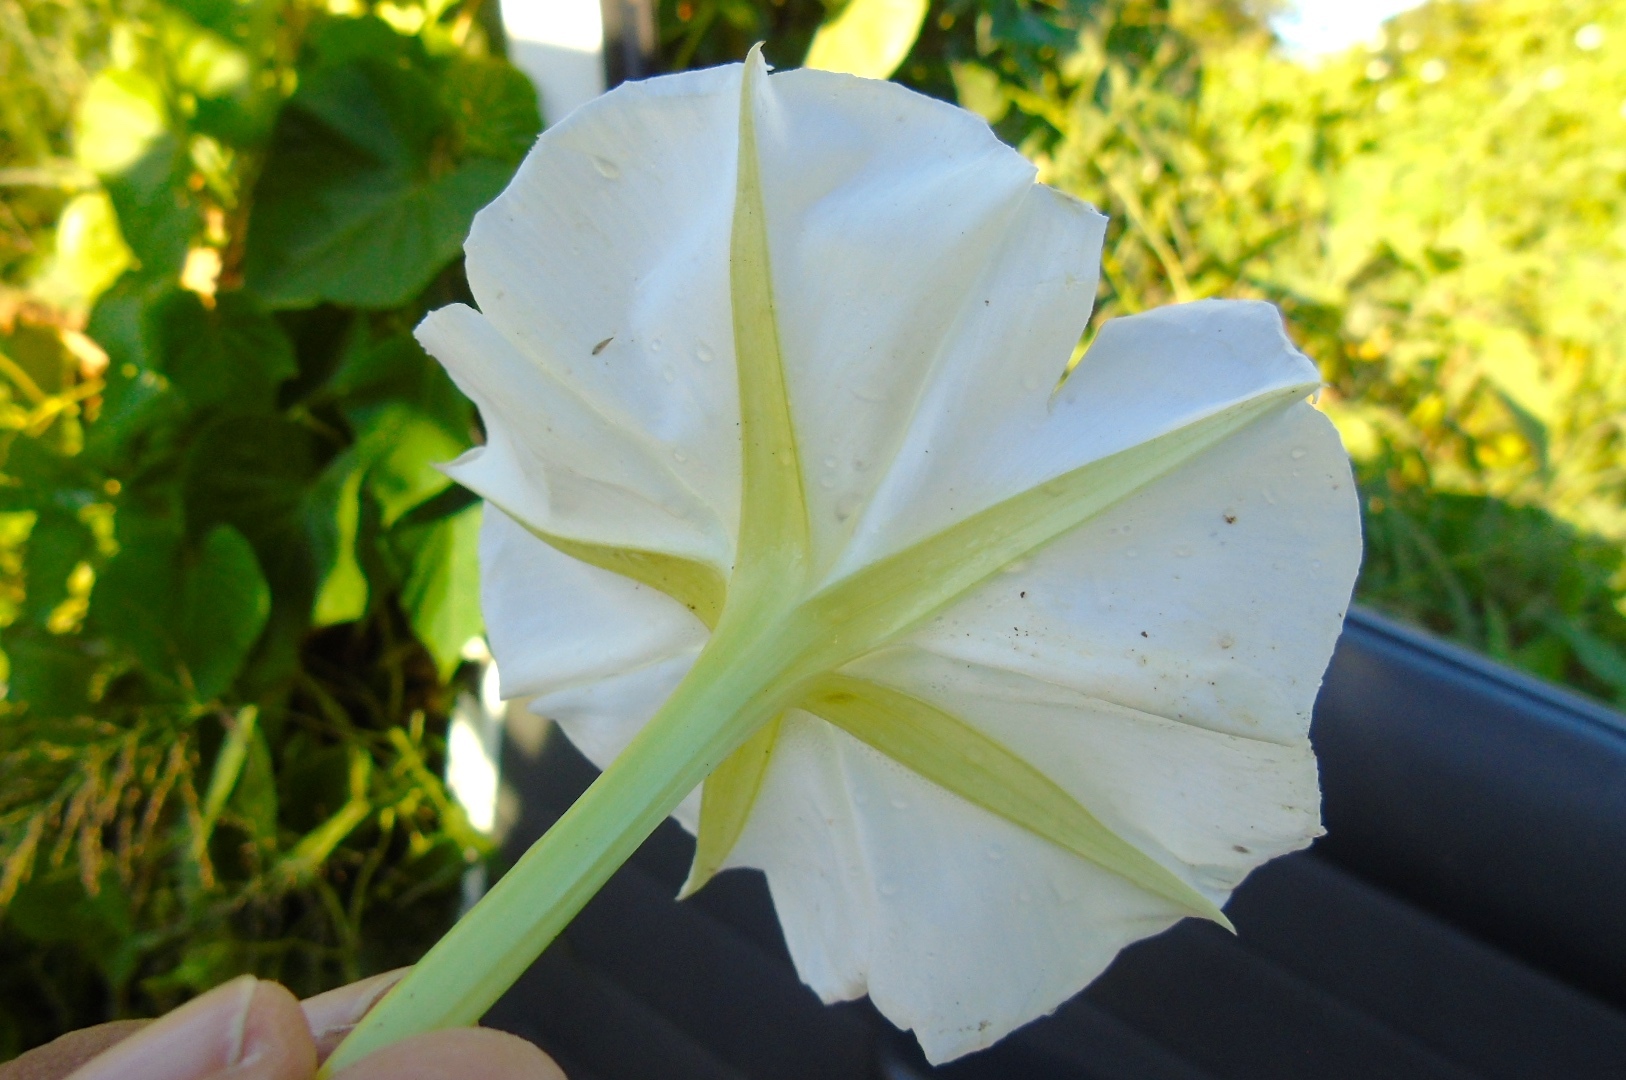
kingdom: Plantae
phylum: Tracheophyta
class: Magnoliopsida
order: Solanales
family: Convolvulaceae
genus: Ipomoea
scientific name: Ipomoea alba
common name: Moonflower
